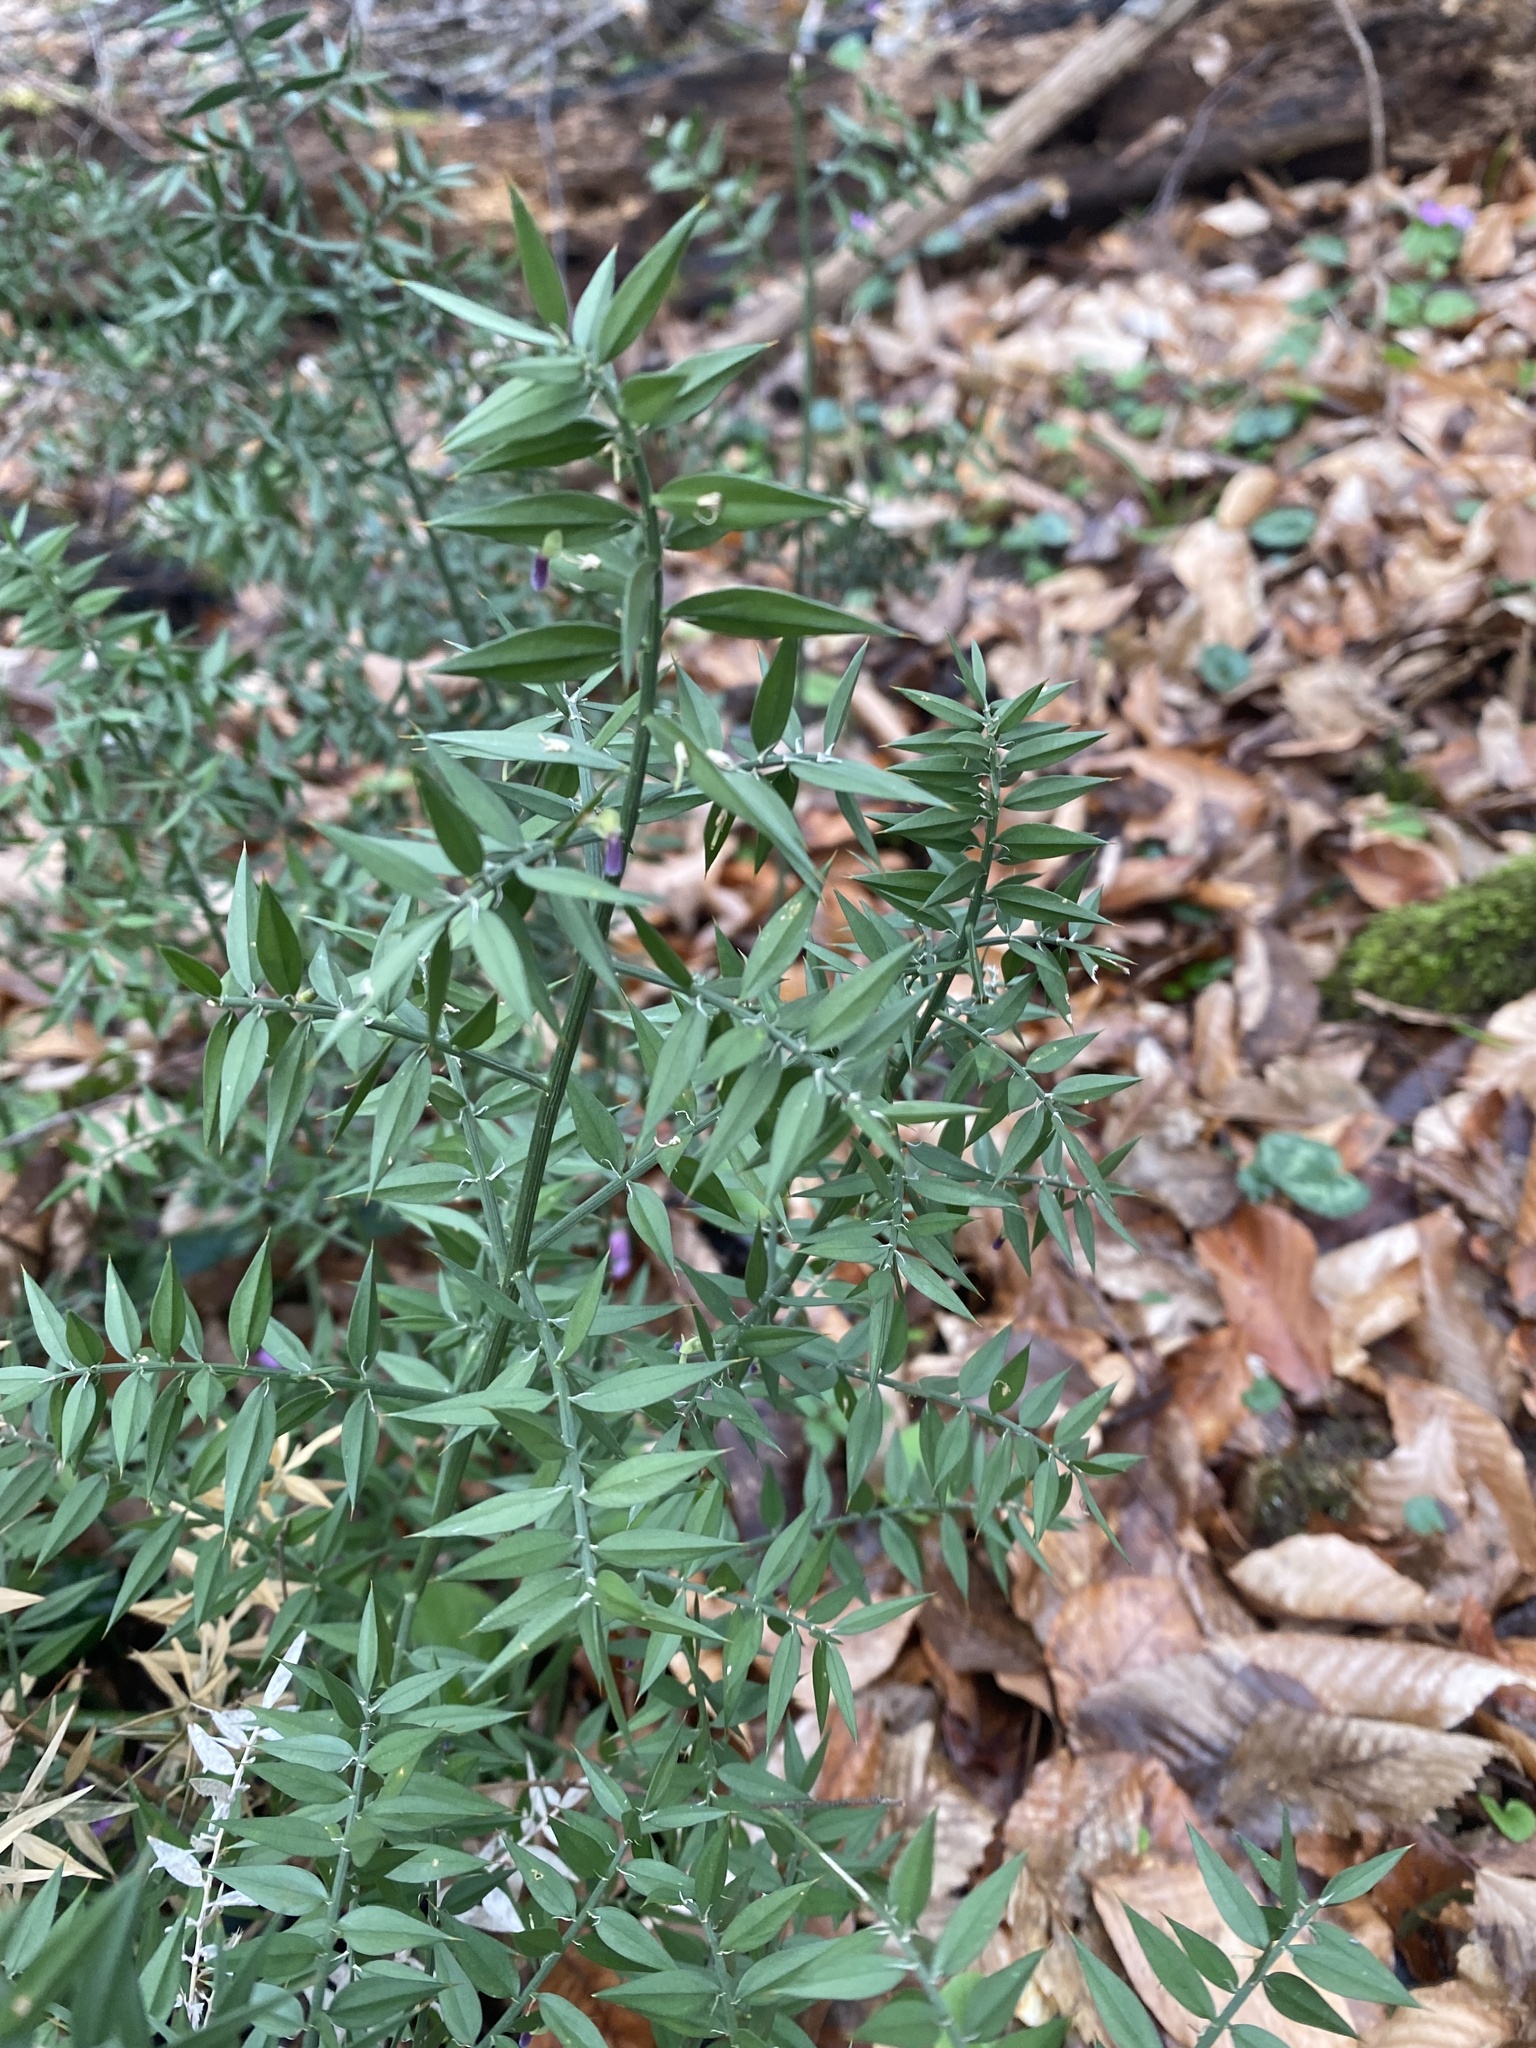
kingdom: Plantae
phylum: Tracheophyta
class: Liliopsida
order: Asparagales
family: Asparagaceae
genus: Ruscus
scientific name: Ruscus aculeatus
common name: Butcher's-broom
